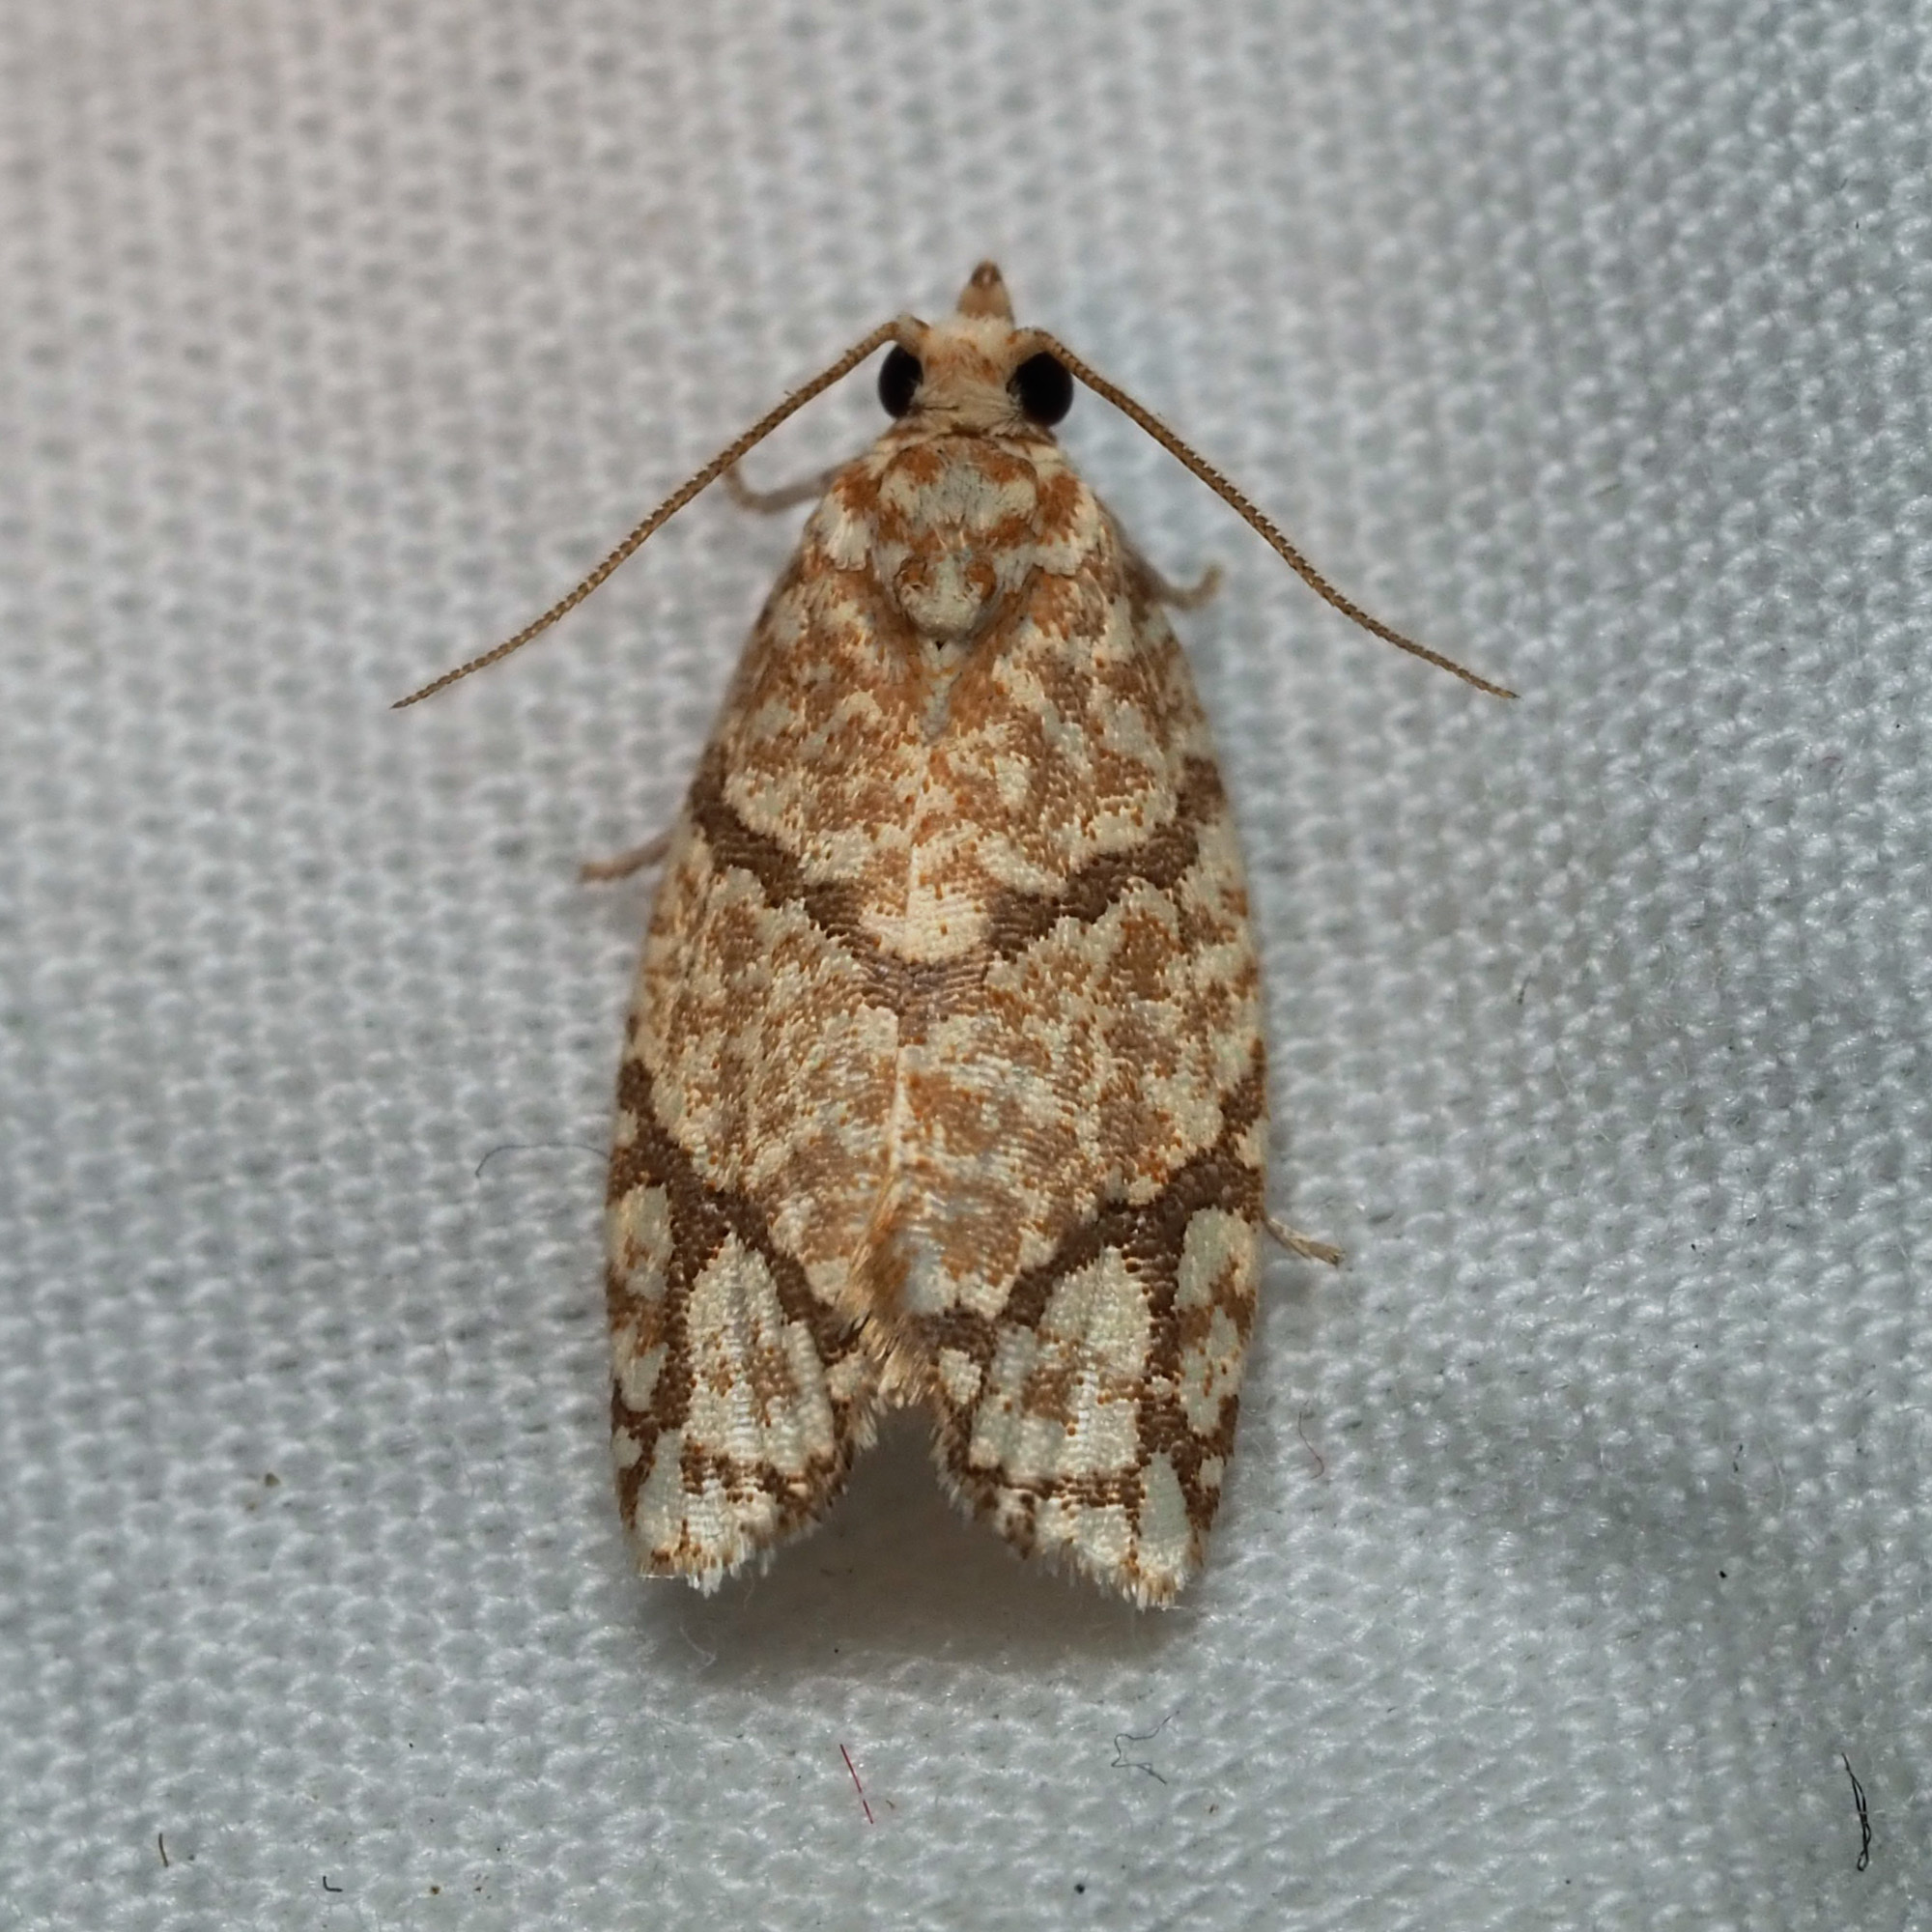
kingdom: Animalia
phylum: Arthropoda
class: Insecta
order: Lepidoptera
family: Tortricidae
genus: Argyrotaenia
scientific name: Argyrotaenia quercifoliana
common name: Yellow-winged oak leafroller moth
